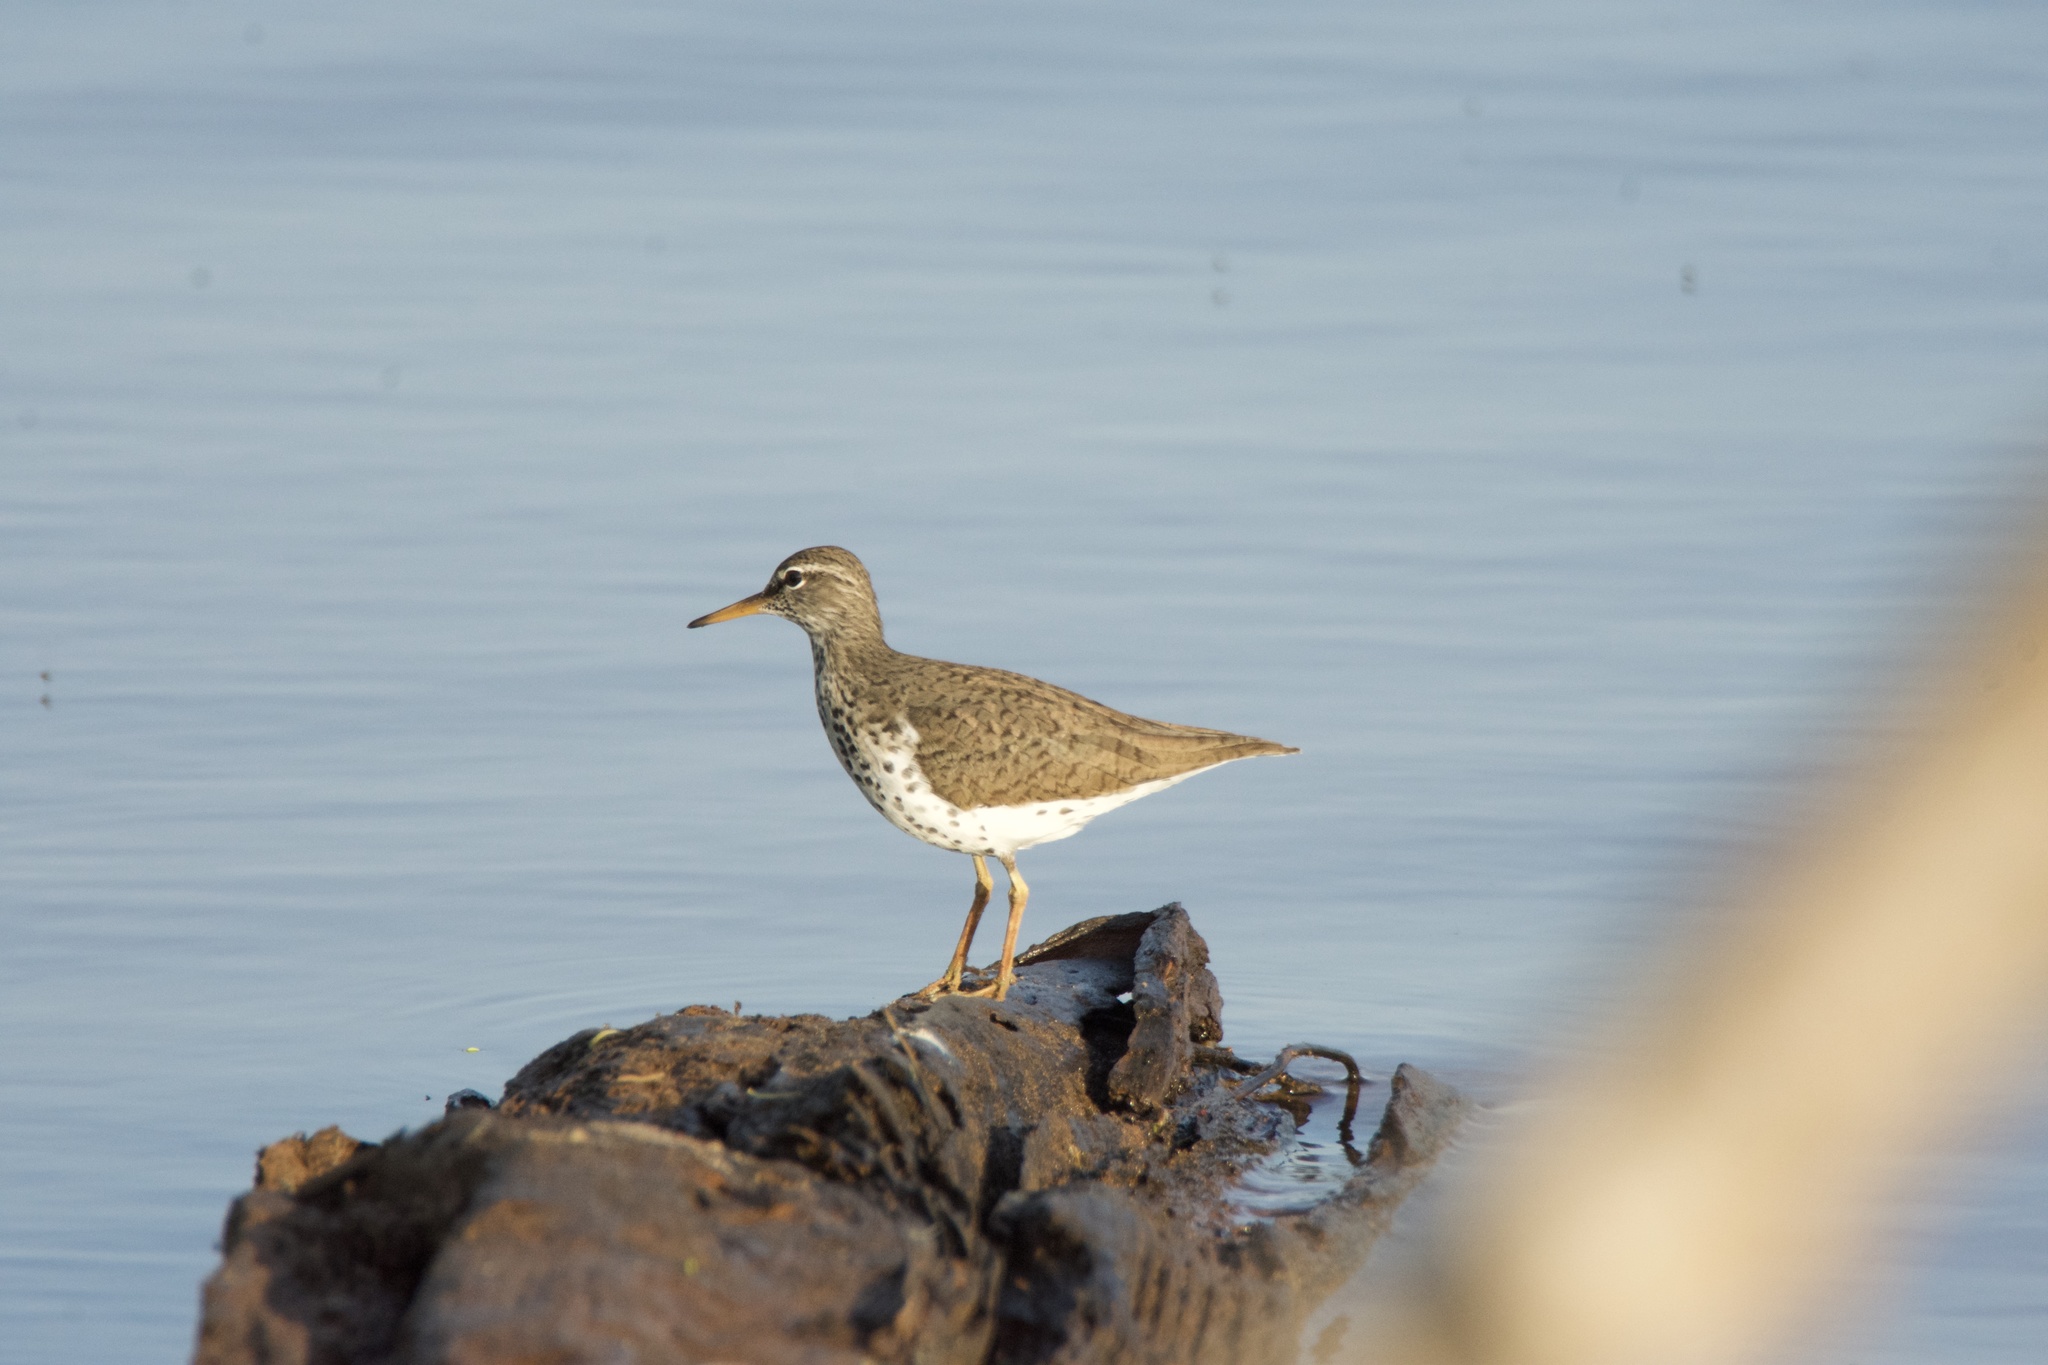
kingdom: Animalia
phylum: Chordata
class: Aves
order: Charadriiformes
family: Scolopacidae
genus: Actitis
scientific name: Actitis macularius
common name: Spotted sandpiper
